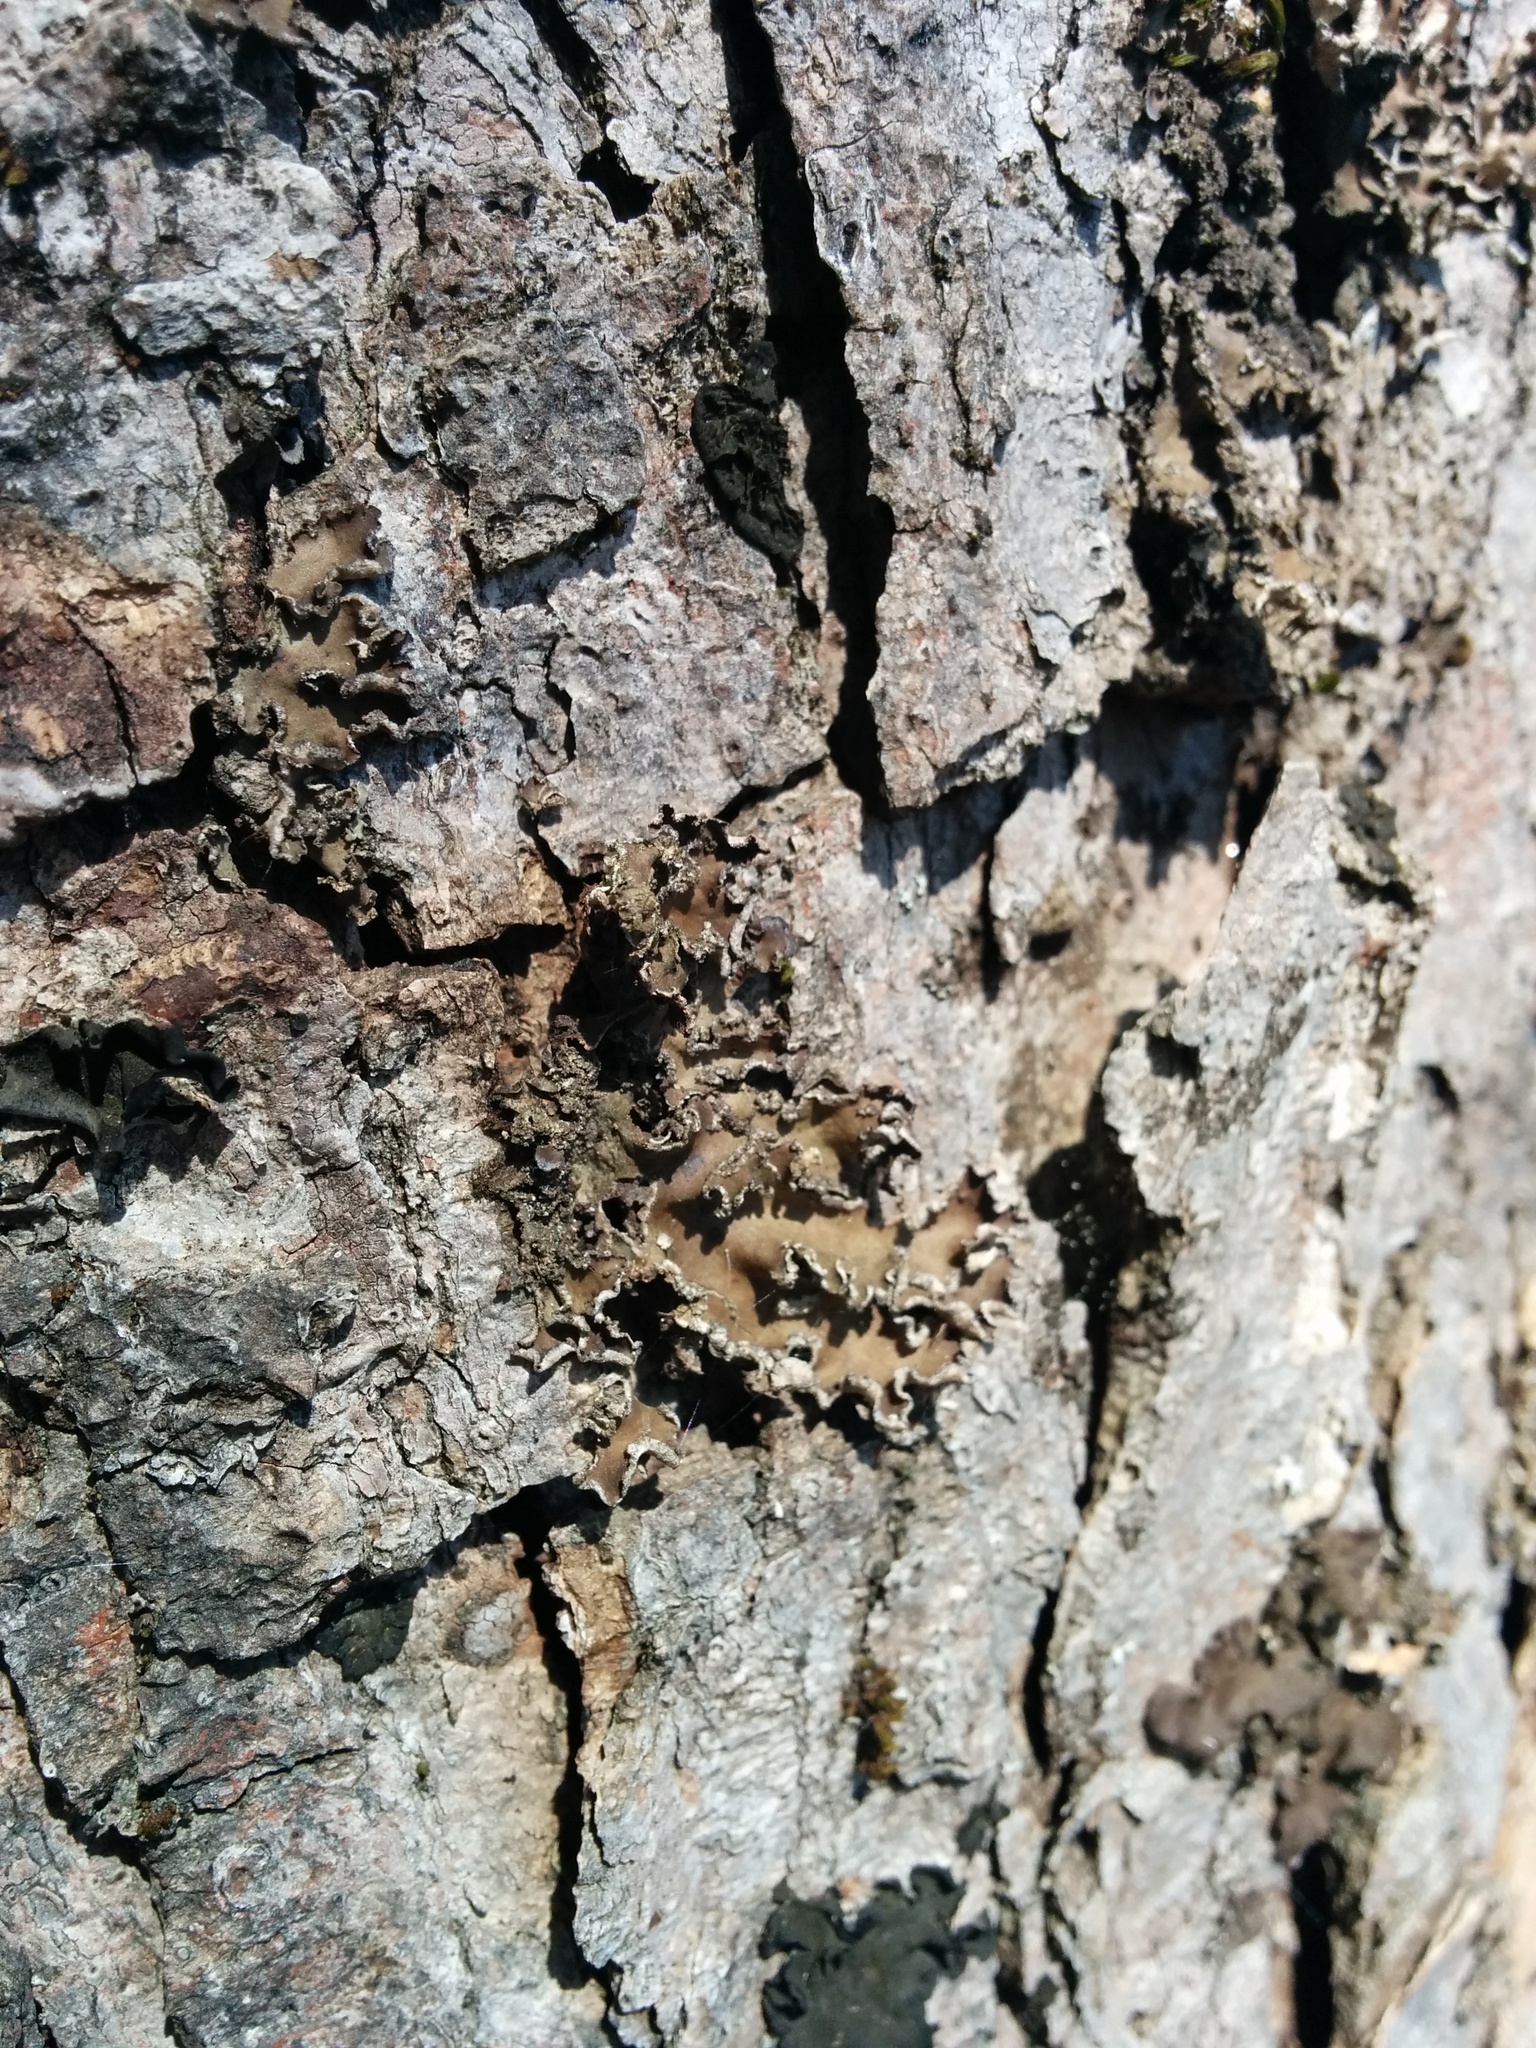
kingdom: Fungi
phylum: Ascomycota
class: Lecanoromycetes
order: Peltigerales
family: Peltigeraceae
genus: Peltigera
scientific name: Peltigera collina
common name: Gritty tree pelt lichen
